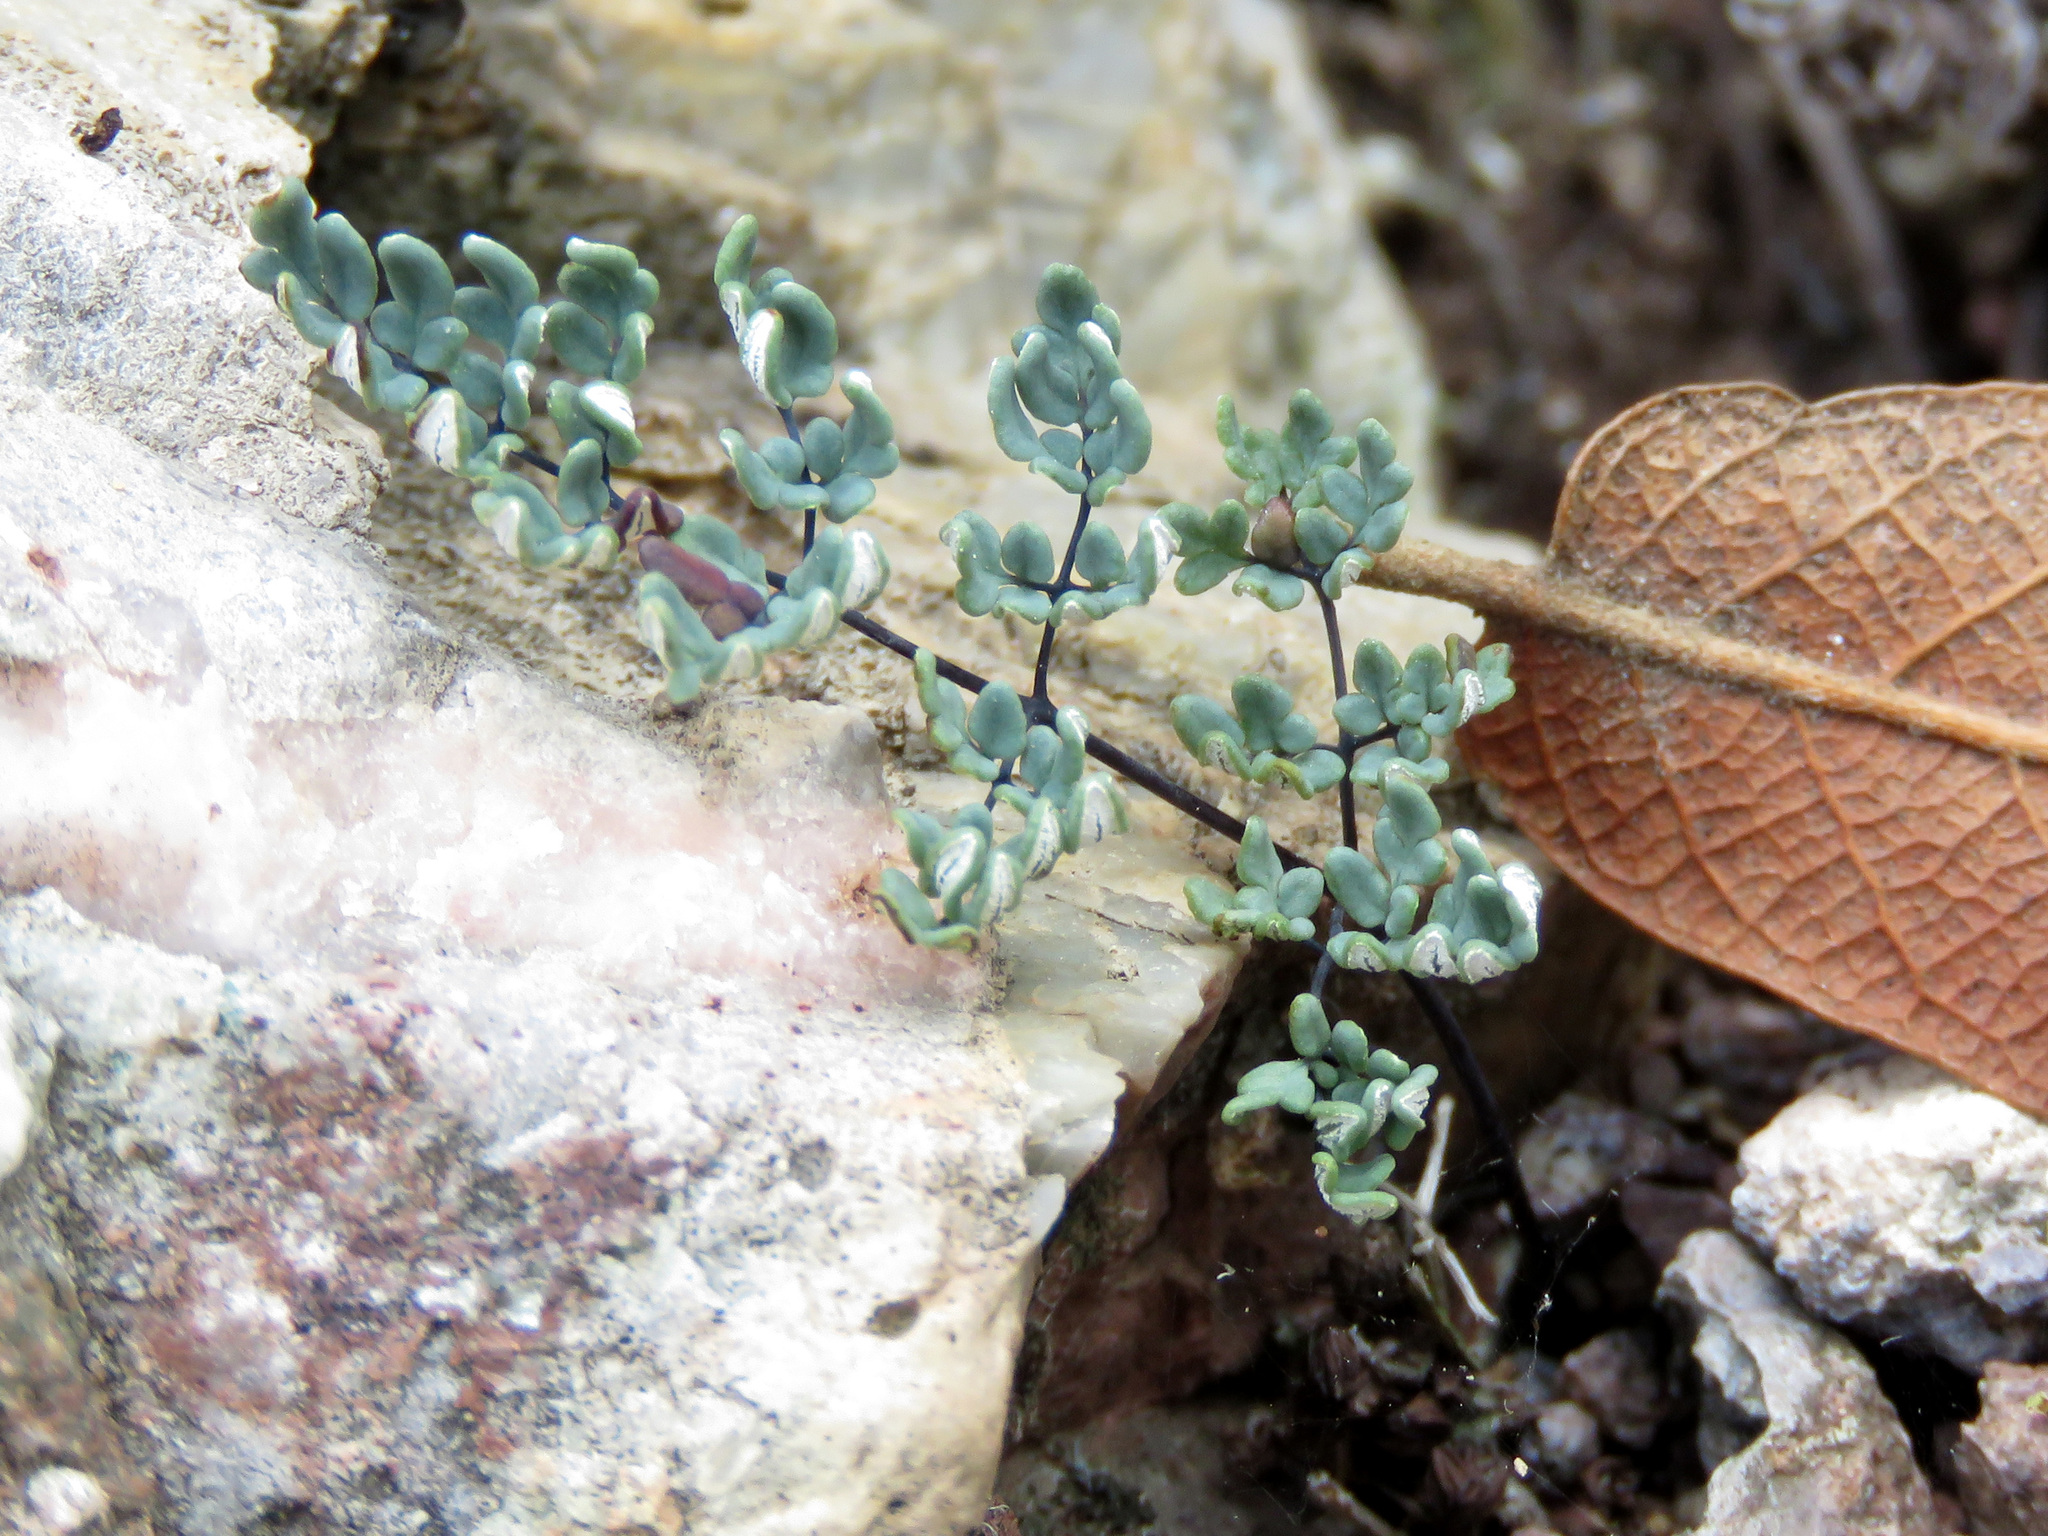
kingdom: Plantae
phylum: Tracheophyta
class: Polypodiopsida
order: Polypodiales
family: Pteridaceae
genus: Argyrochosma
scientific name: Argyrochosma limitanea
